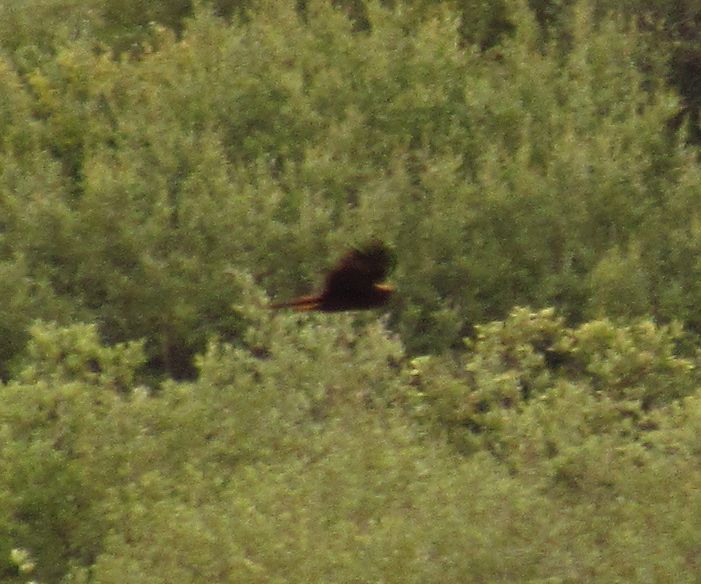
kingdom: Animalia
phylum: Chordata
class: Aves
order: Accipitriformes
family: Accipitridae
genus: Circus
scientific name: Circus aeruginosus
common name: Western marsh harrier
